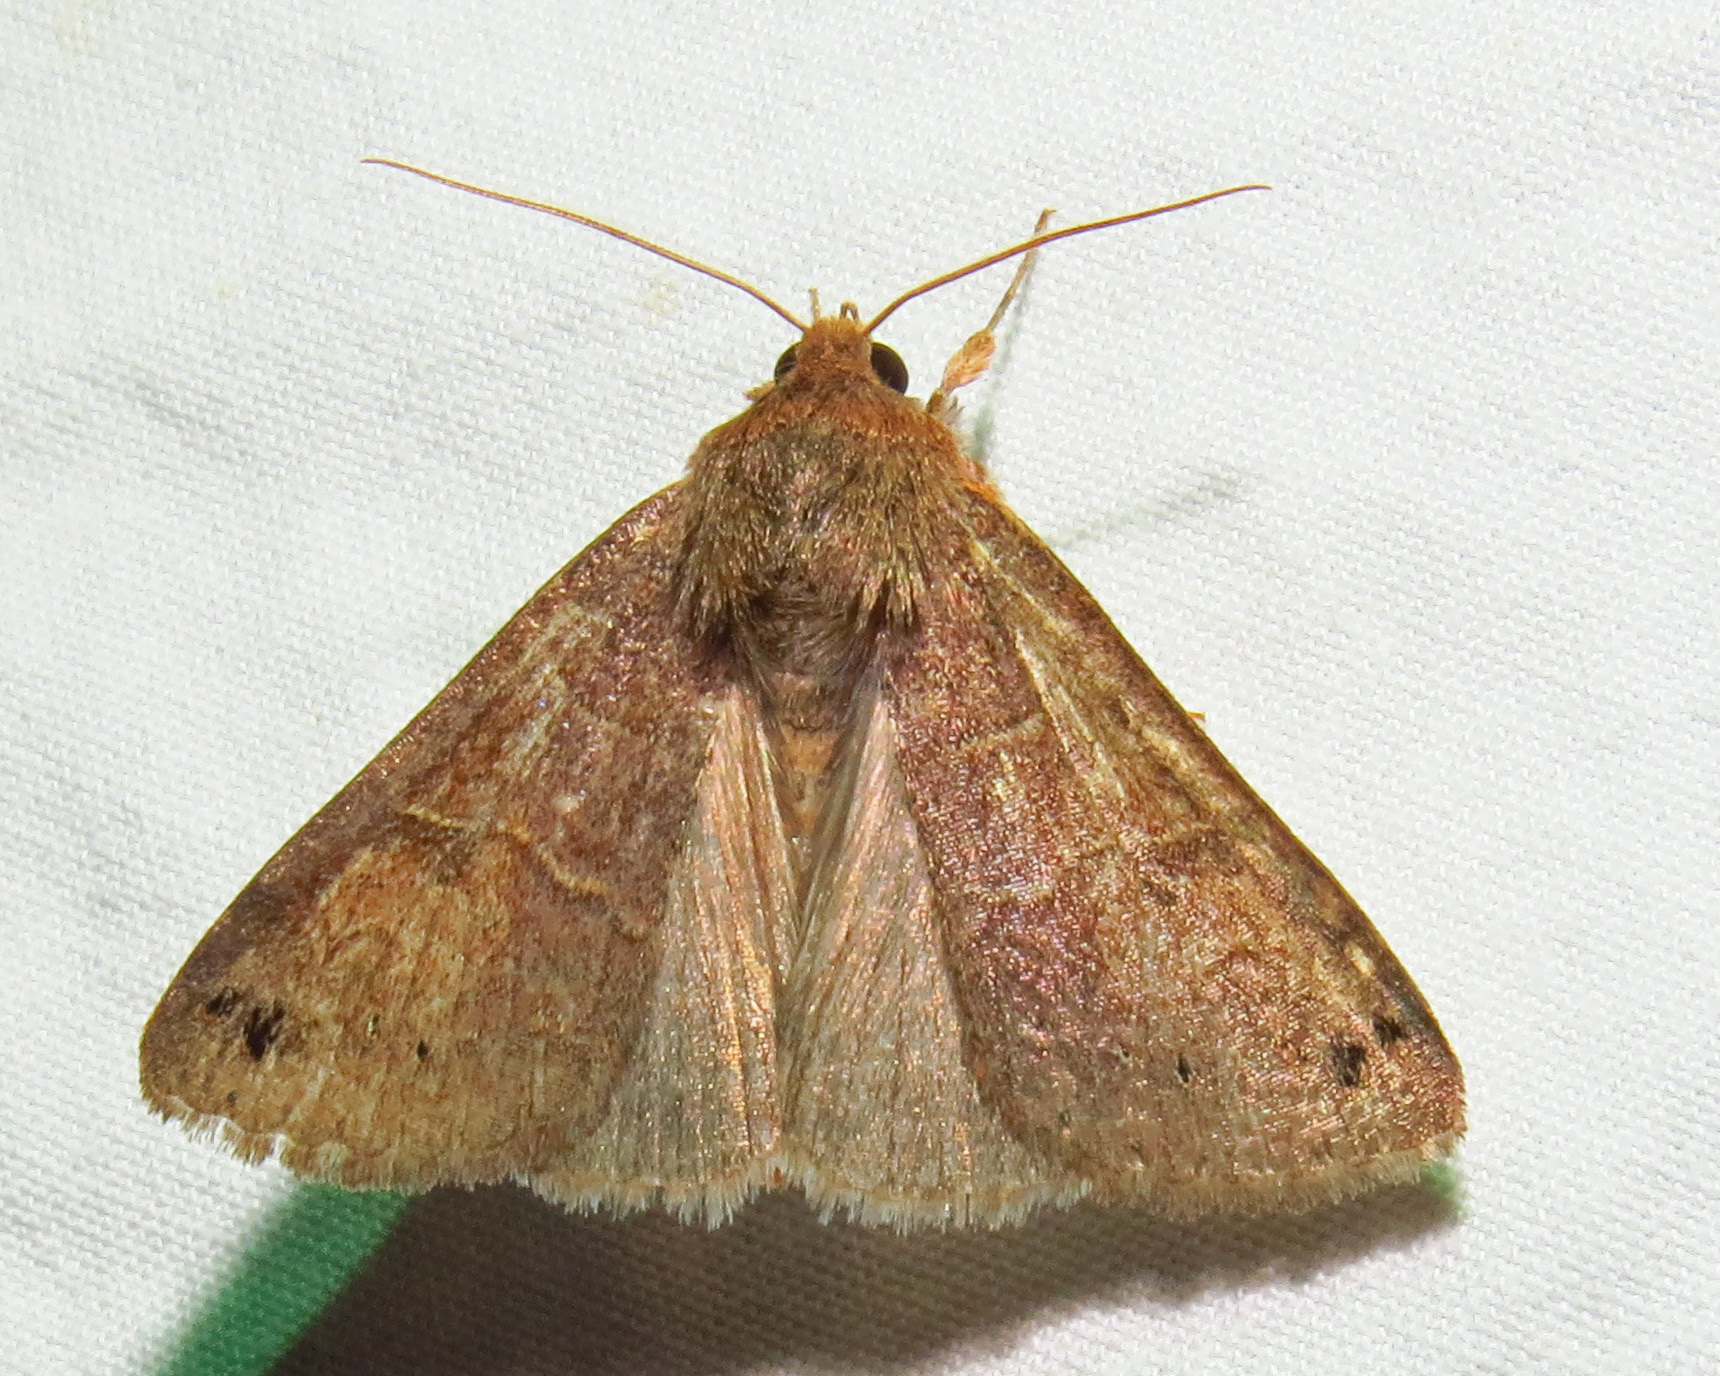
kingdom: Animalia
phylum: Arthropoda
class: Insecta
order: Lepidoptera
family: Erebidae
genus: Cissusa
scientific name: Cissusa spadix
